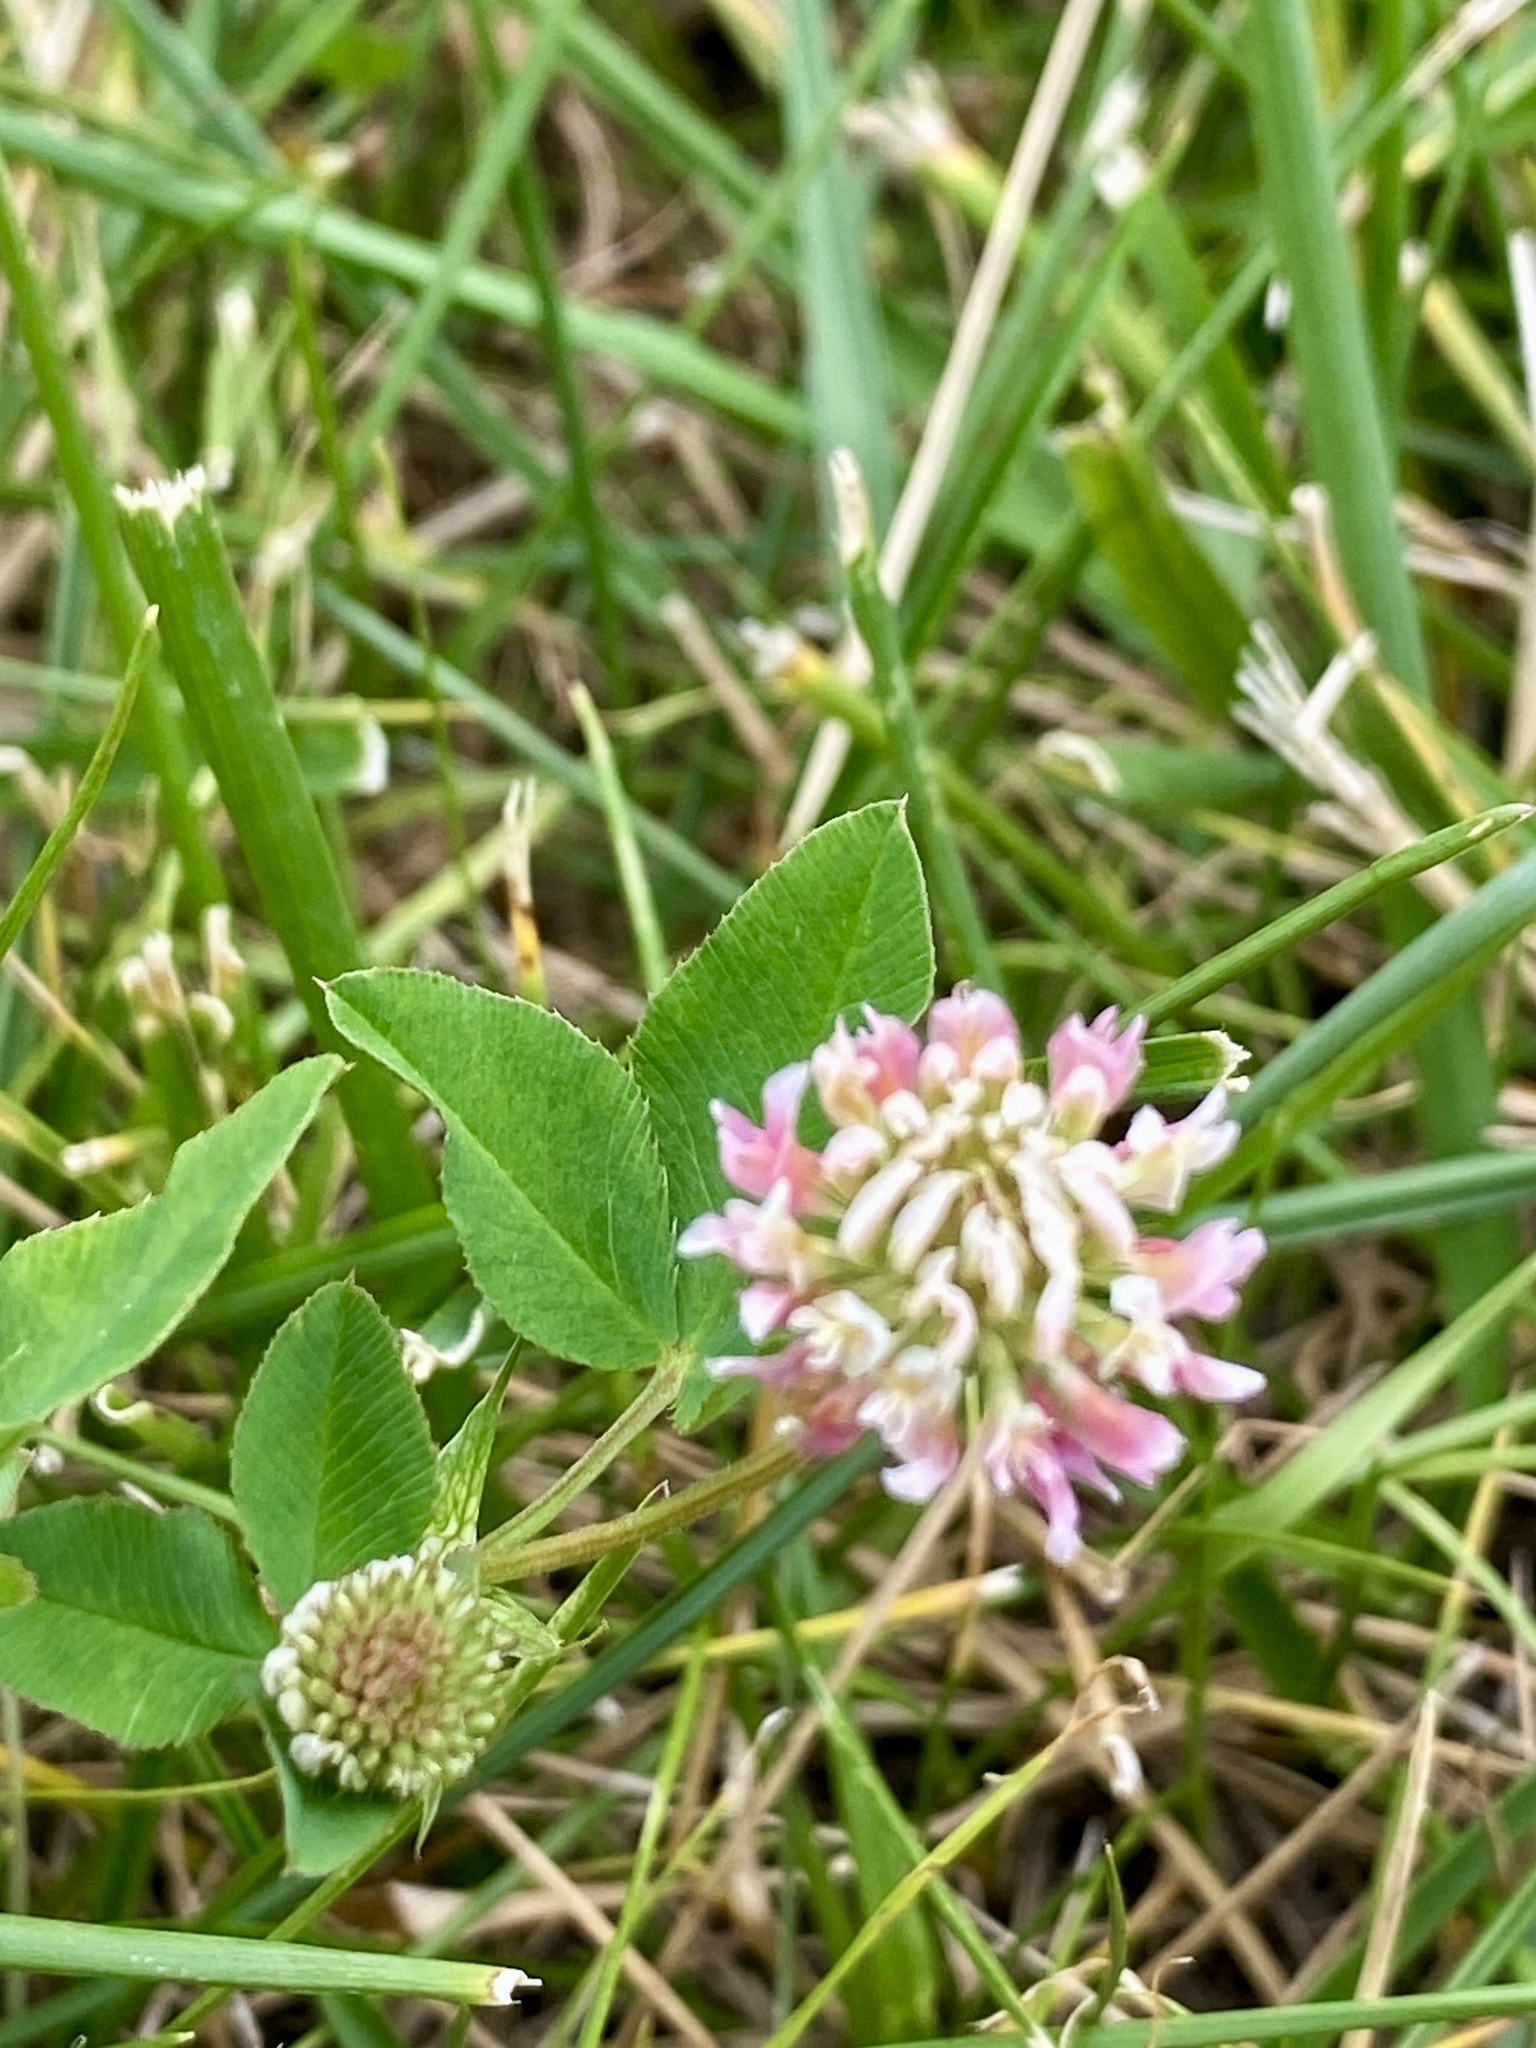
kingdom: Plantae
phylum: Tracheophyta
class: Magnoliopsida
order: Fabales
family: Fabaceae
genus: Trifolium
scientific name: Trifolium hybridum
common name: Alsike clover
